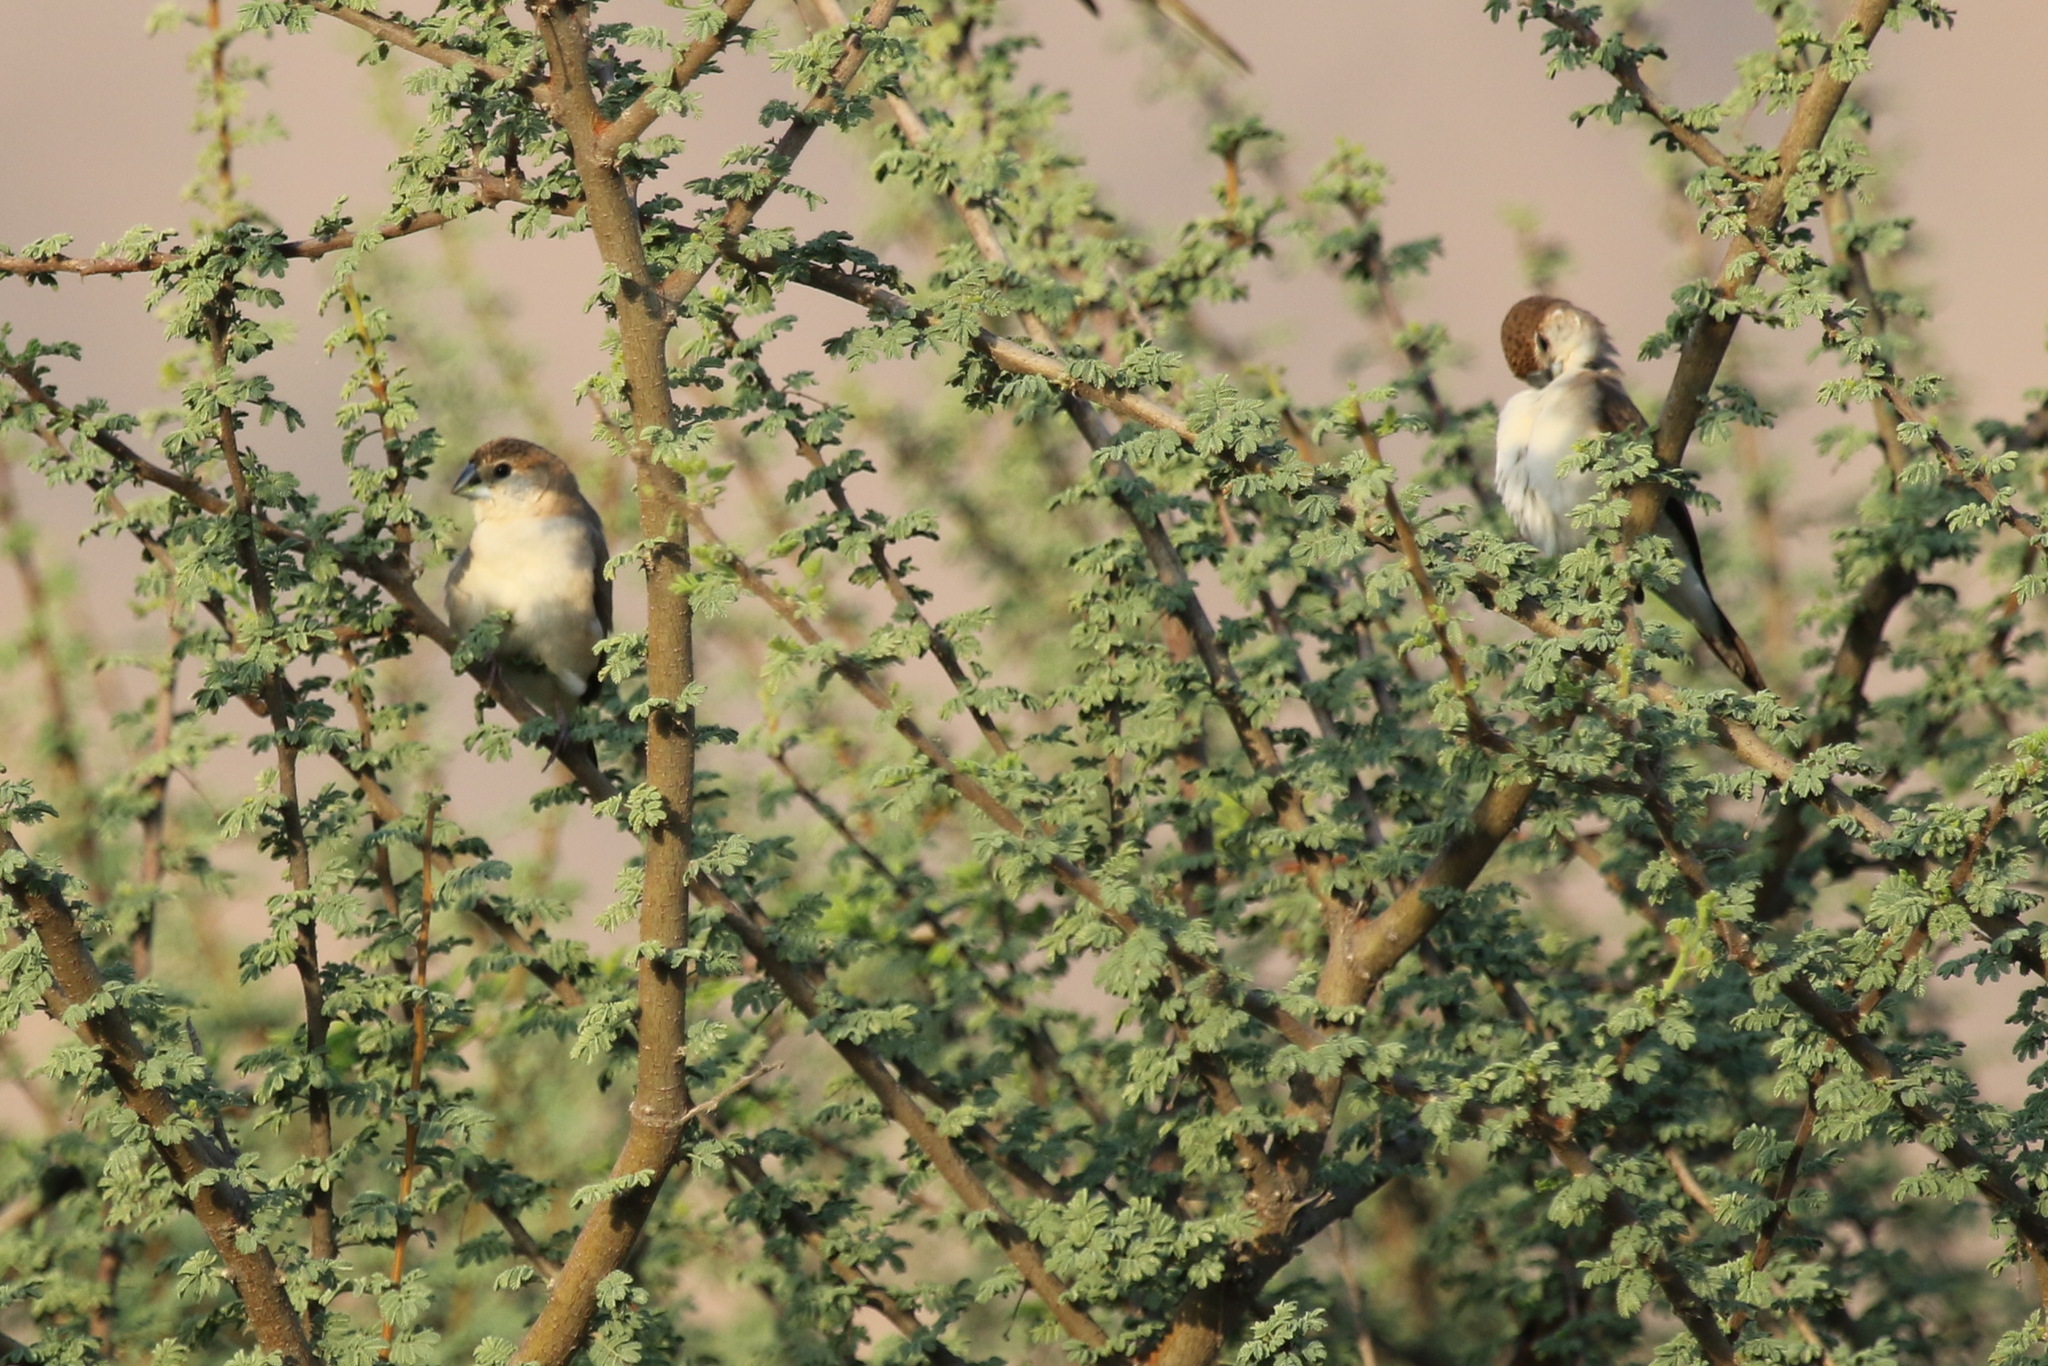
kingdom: Animalia
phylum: Chordata
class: Aves
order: Passeriformes
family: Estrildidae
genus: Euodice
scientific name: Euodice malabarica
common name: Indian silverbill
